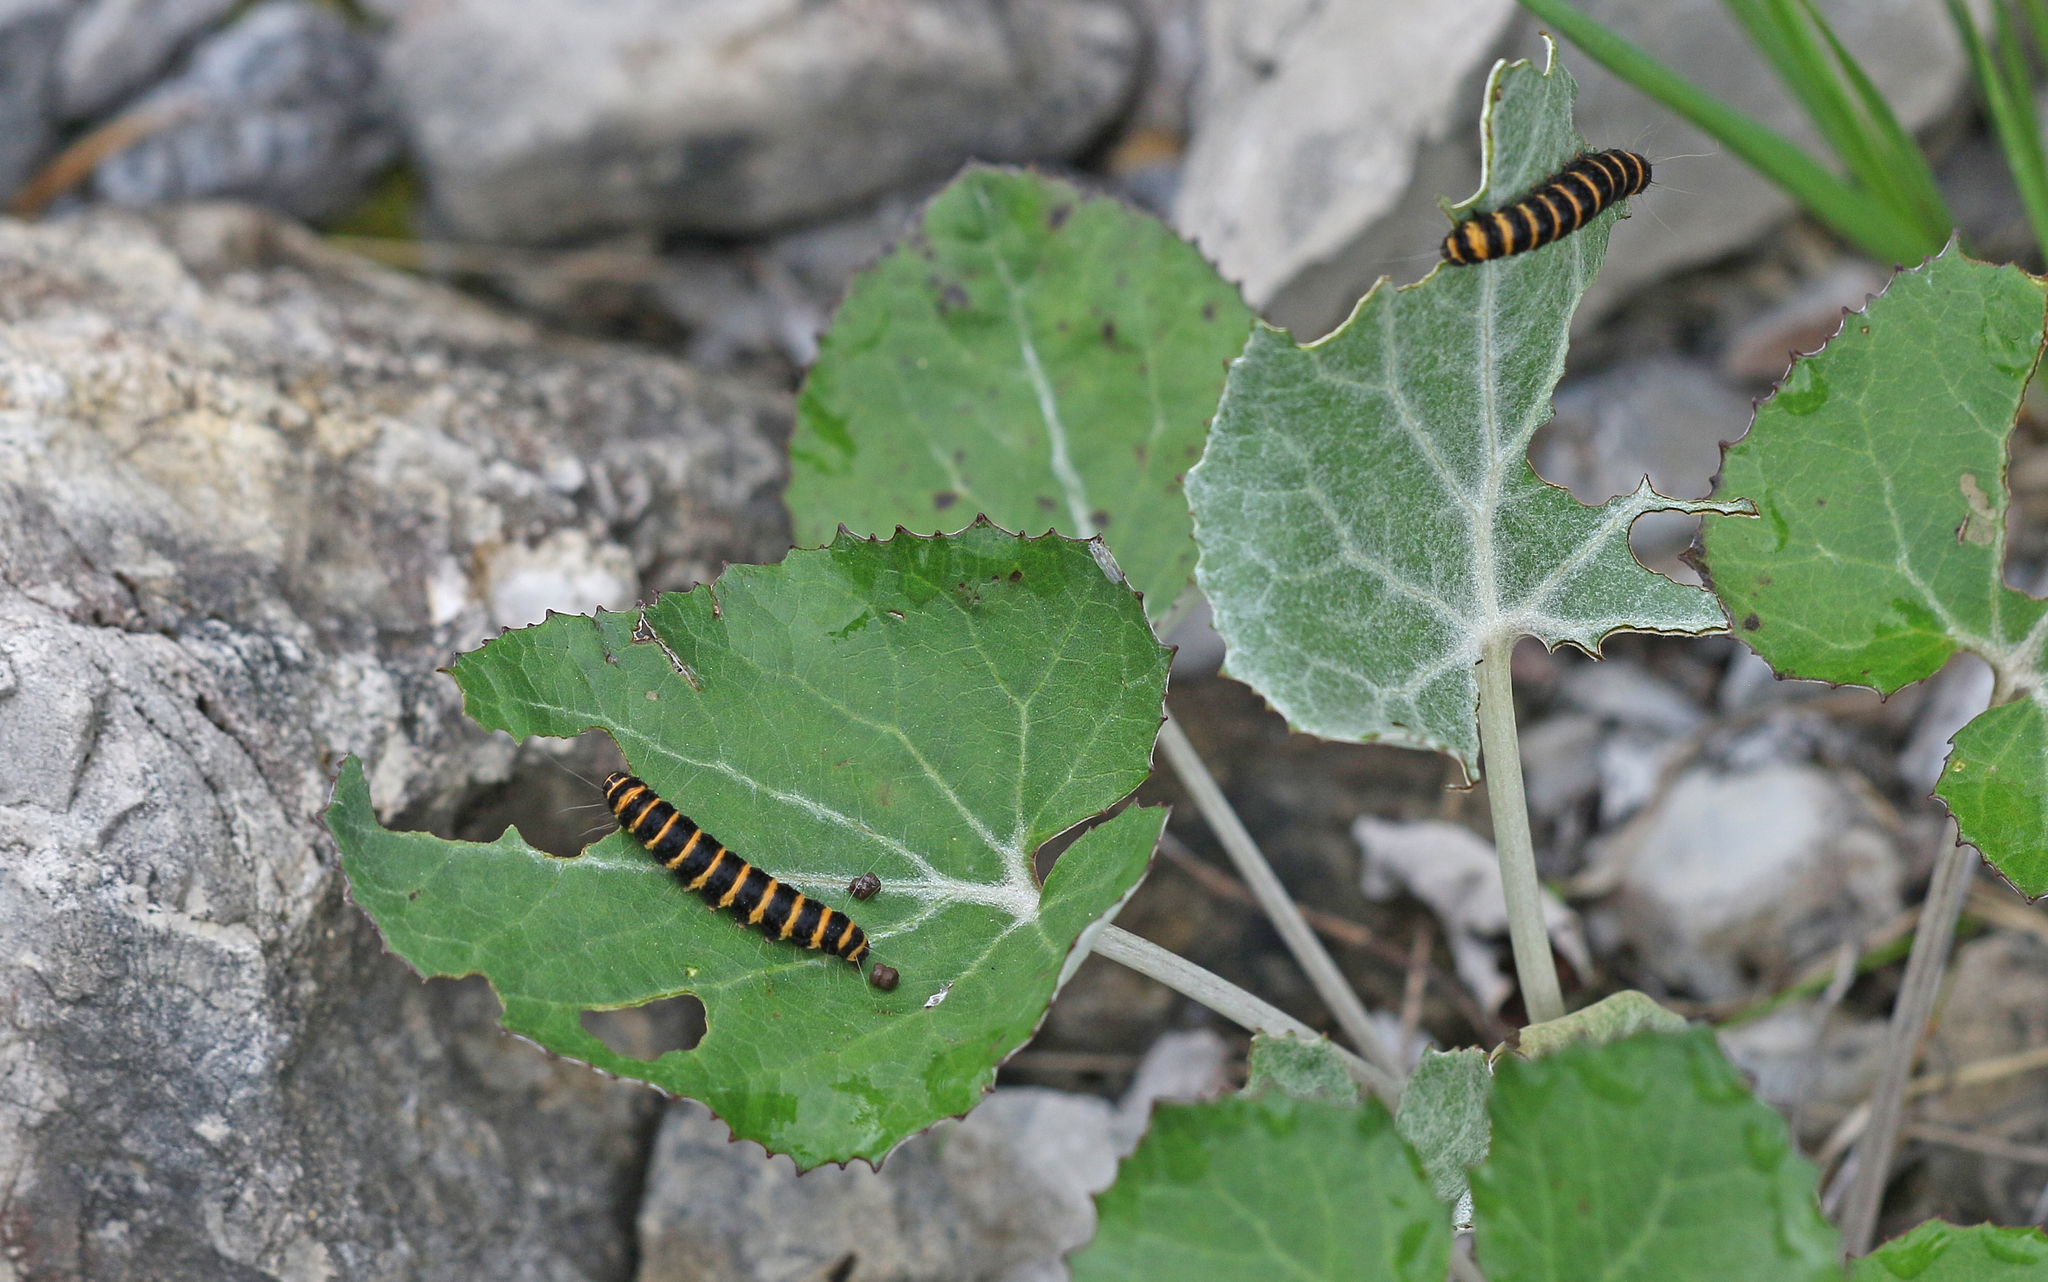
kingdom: Animalia
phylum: Arthropoda
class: Insecta
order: Lepidoptera
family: Erebidae
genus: Tyria
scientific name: Tyria jacobaeae
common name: Cinnabar
